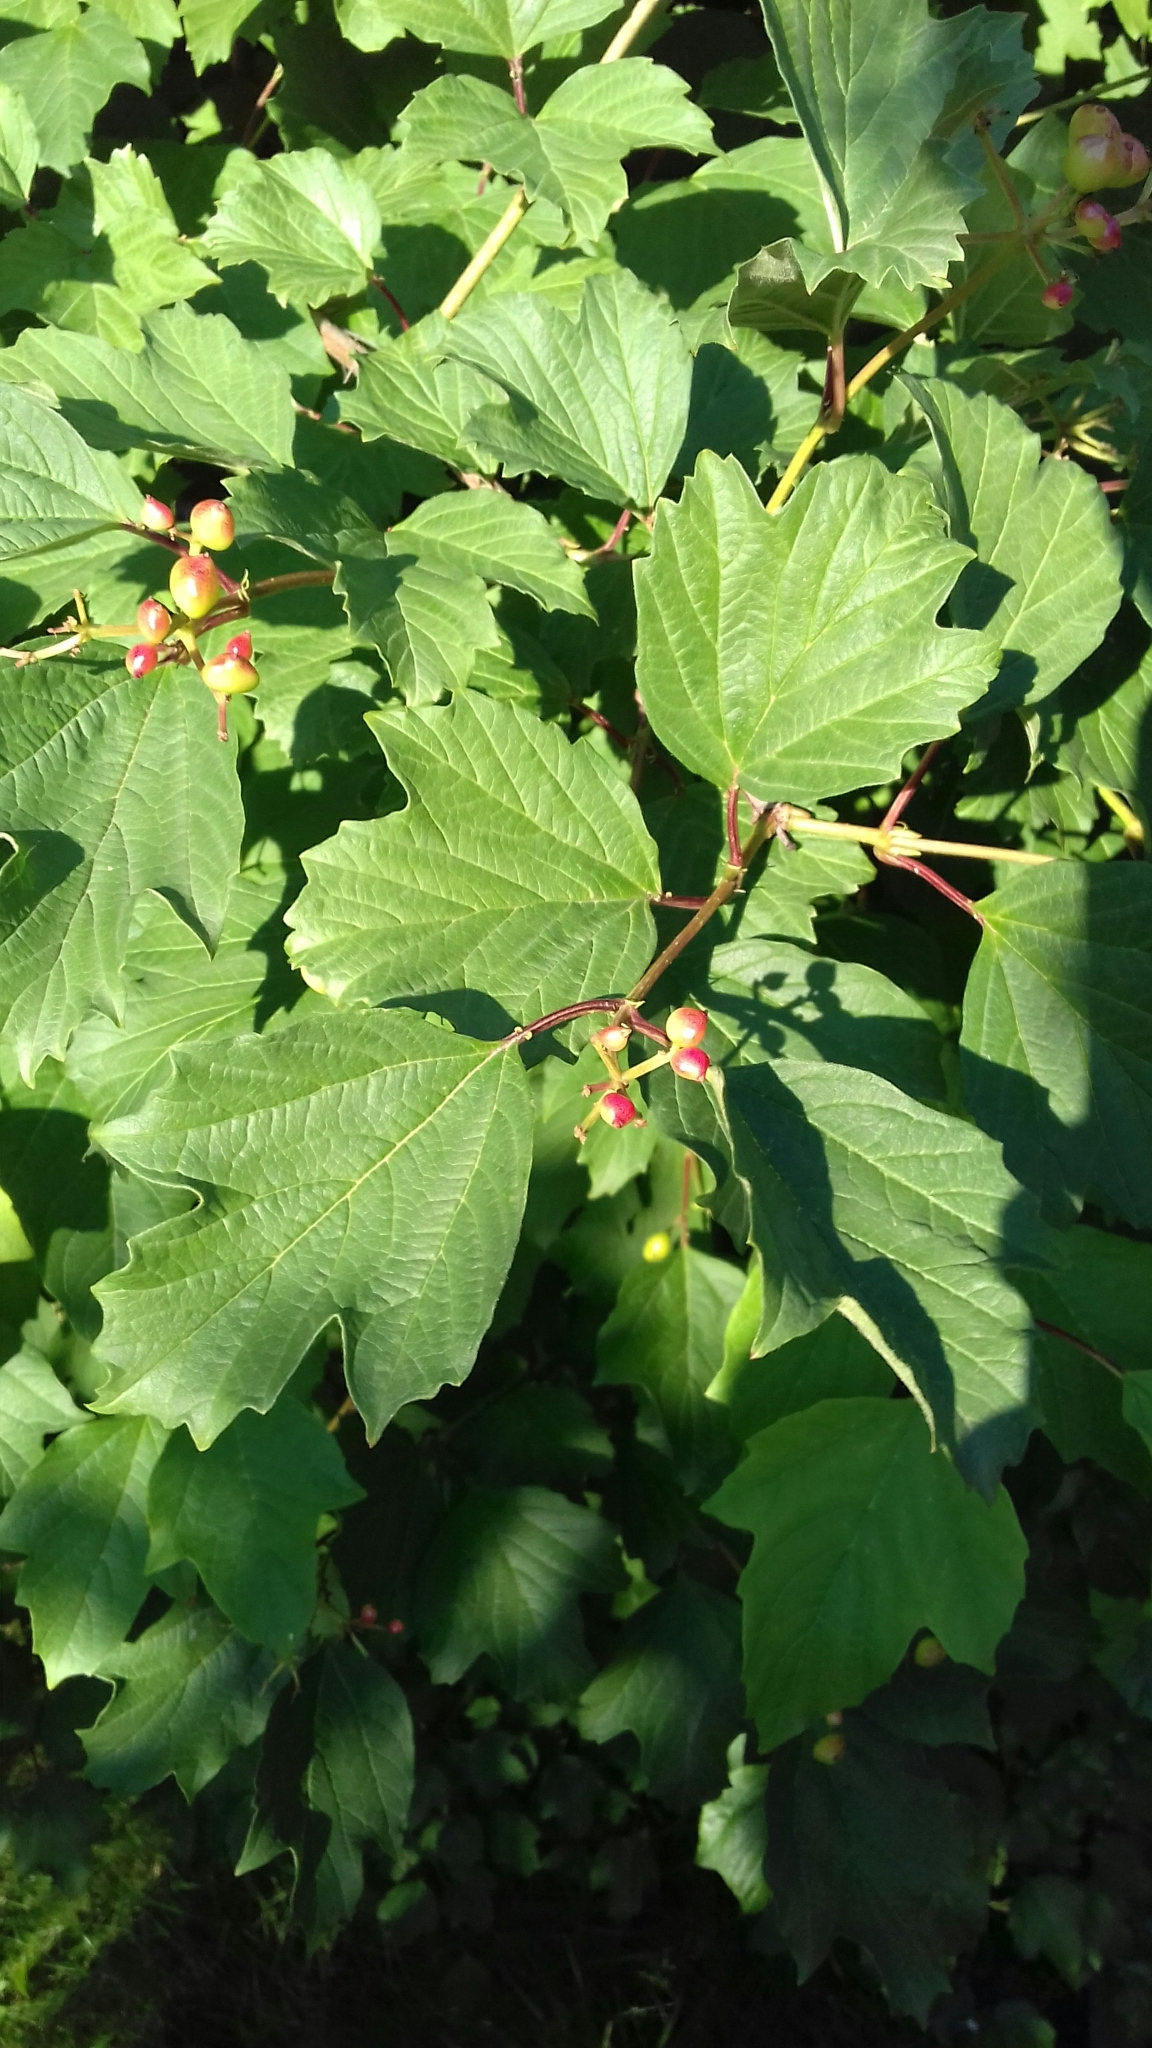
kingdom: Plantae
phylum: Tracheophyta
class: Magnoliopsida
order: Dipsacales
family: Viburnaceae
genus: Viburnum
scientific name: Viburnum opulus
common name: Guelder-rose
